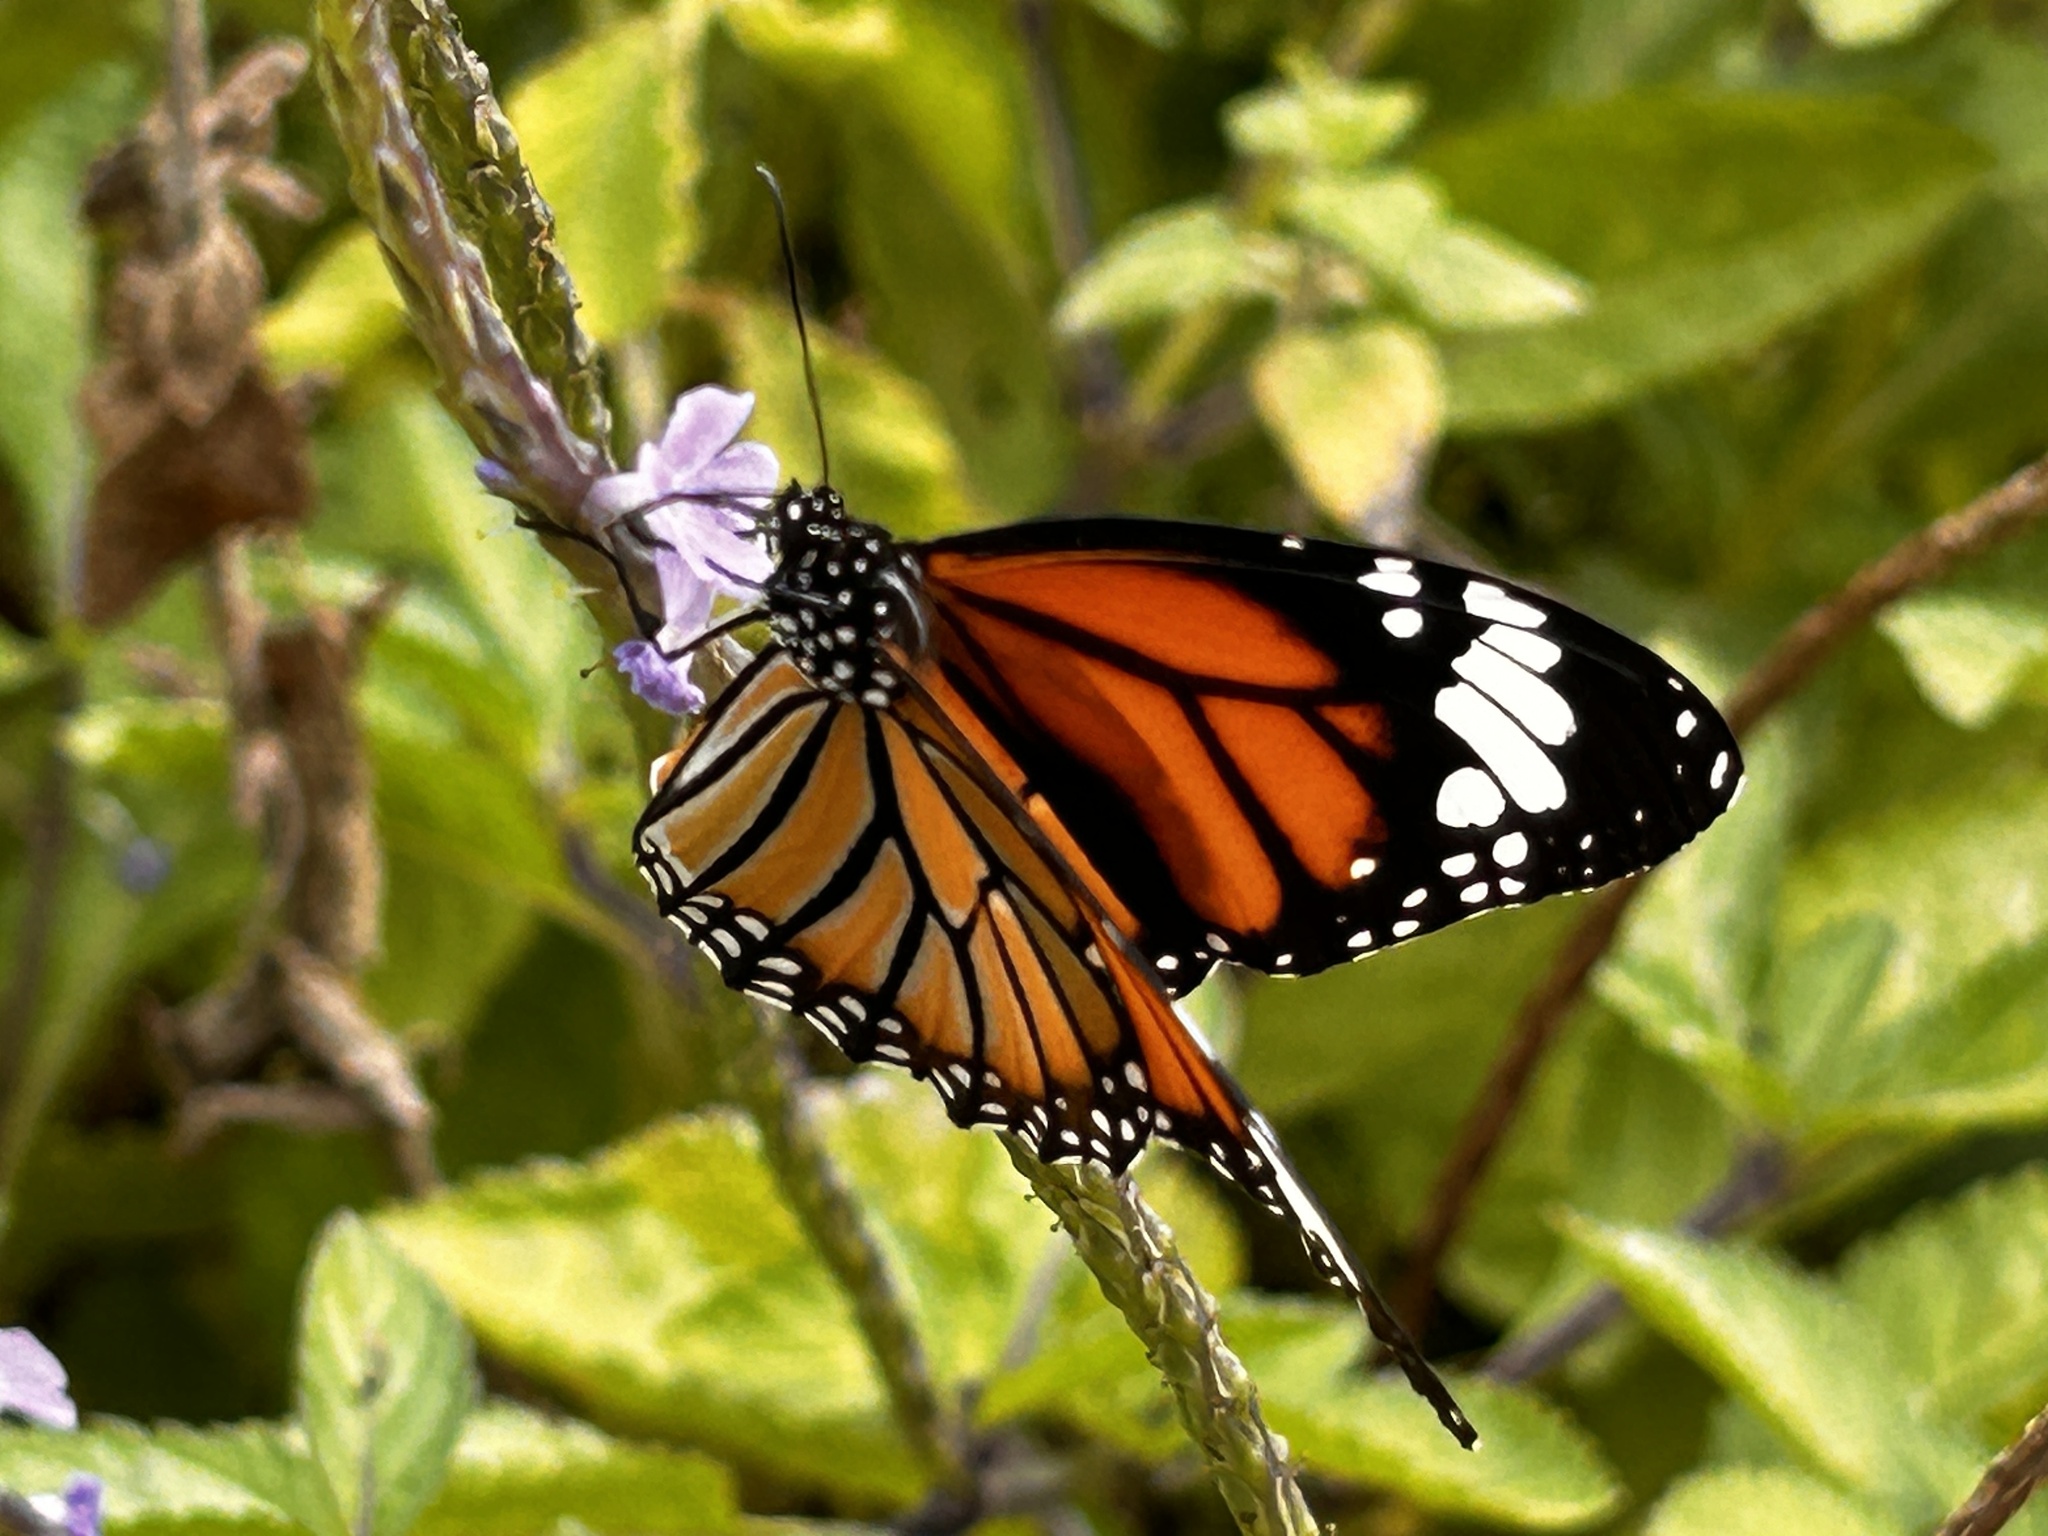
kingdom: Animalia
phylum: Arthropoda
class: Insecta
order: Lepidoptera
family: Nymphalidae
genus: Danaus
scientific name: Danaus genutia
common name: Common tiger butterfly
